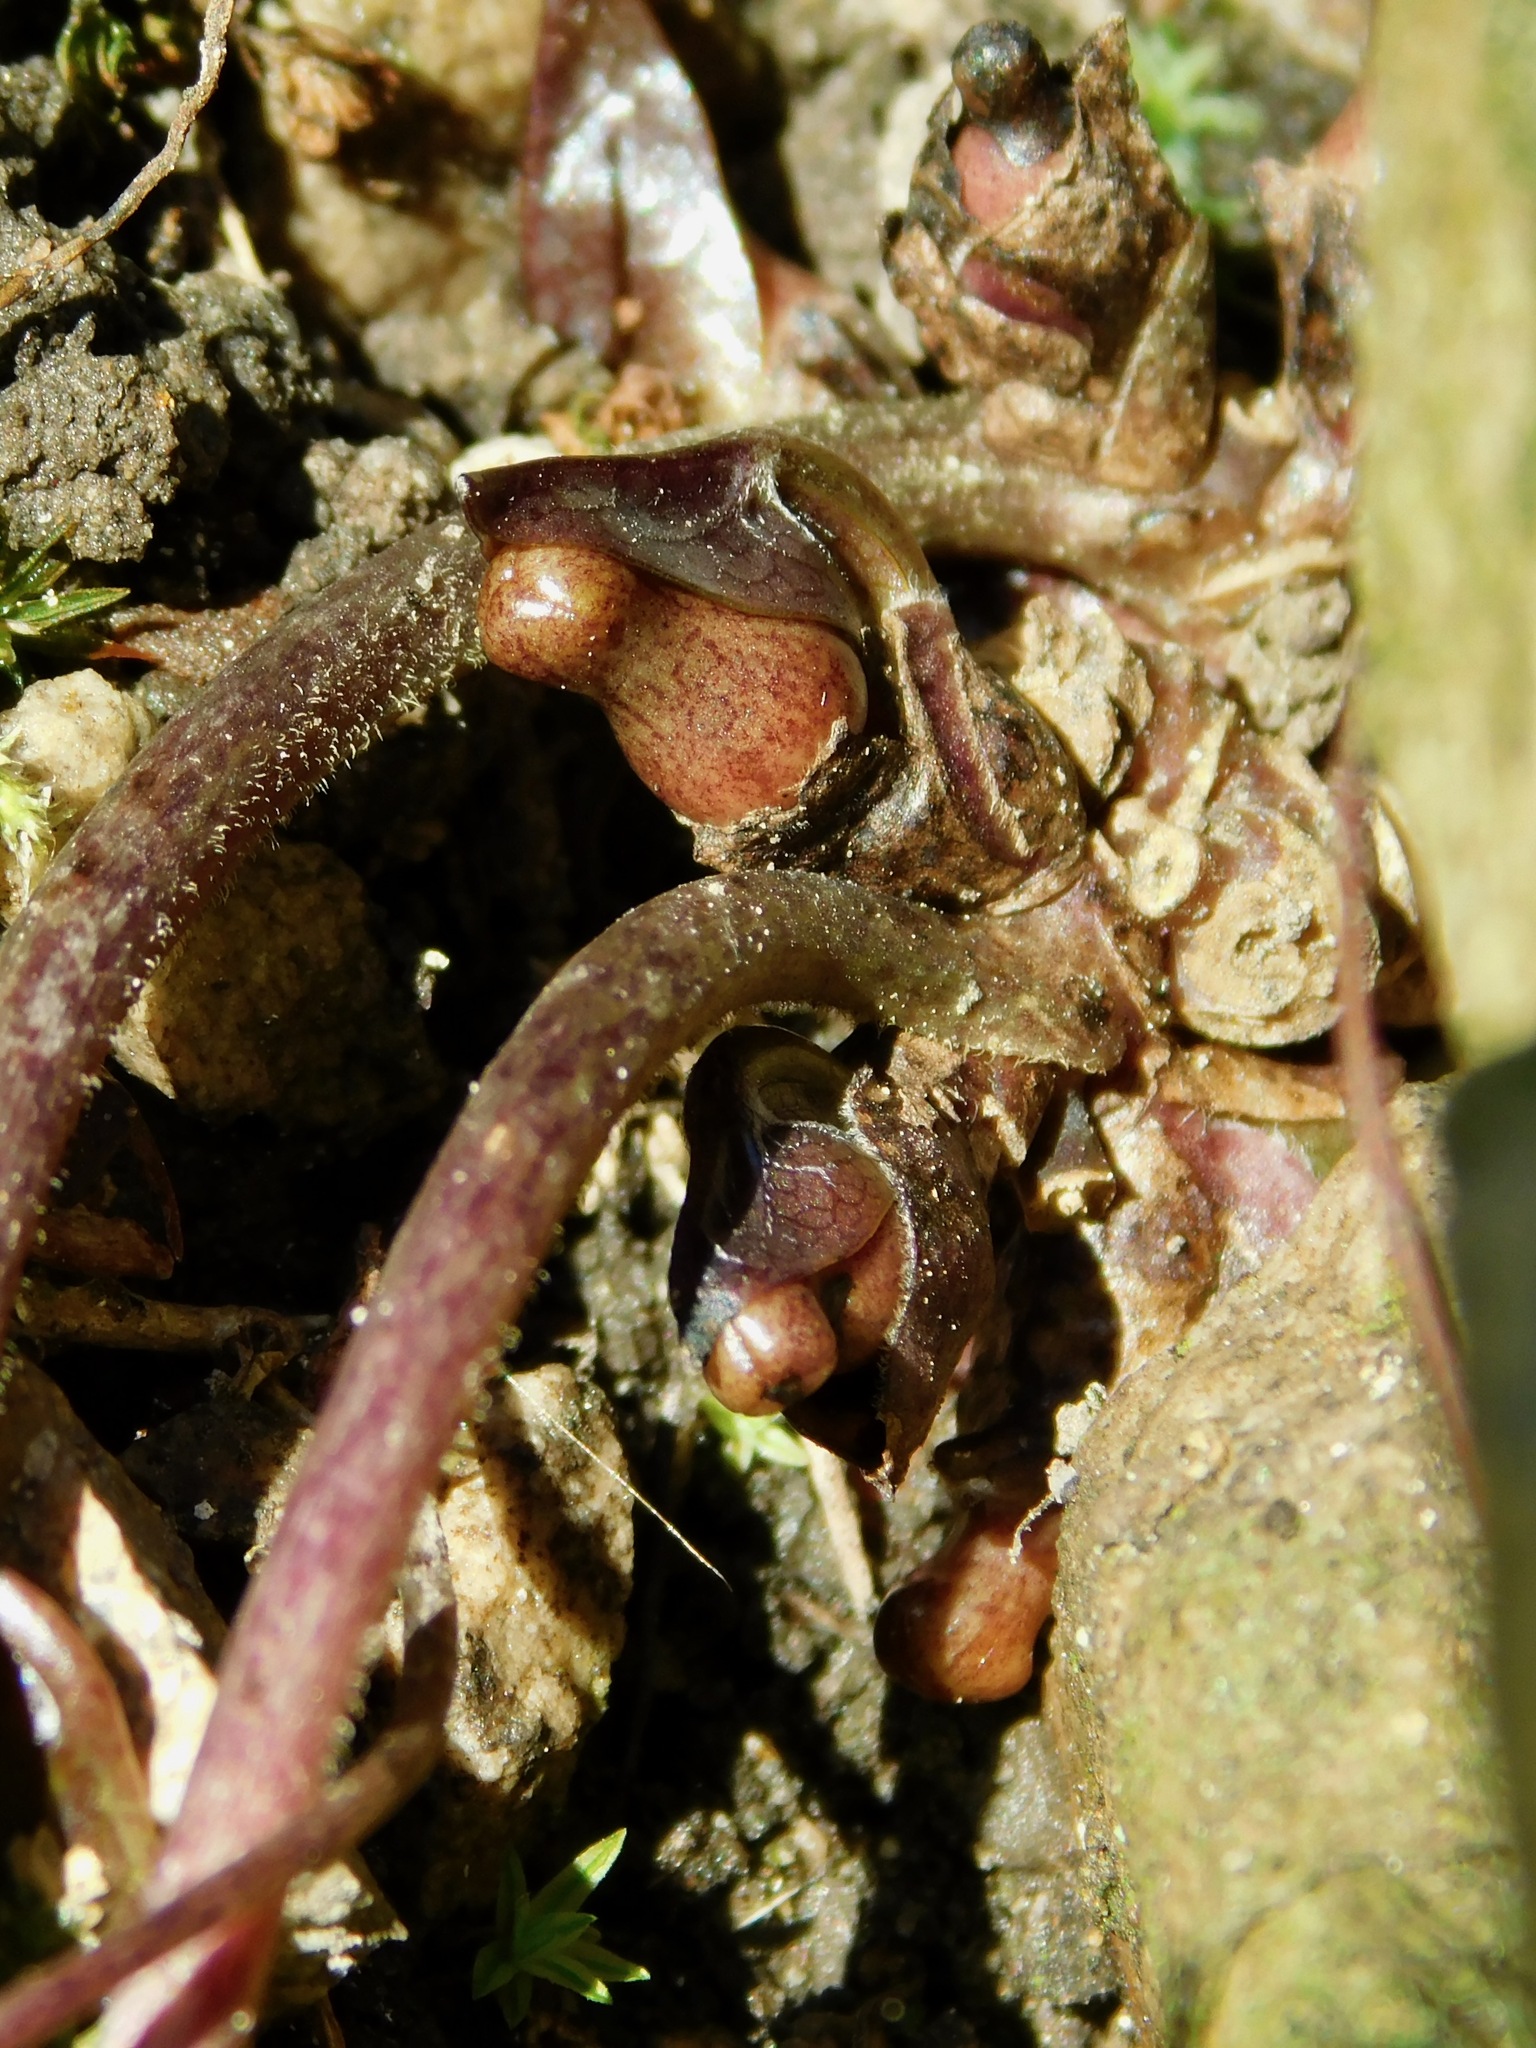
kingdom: Plantae
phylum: Tracheophyta
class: Magnoliopsida
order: Piperales
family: Aristolochiaceae
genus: Hexastylis
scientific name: Hexastylis arifolia
